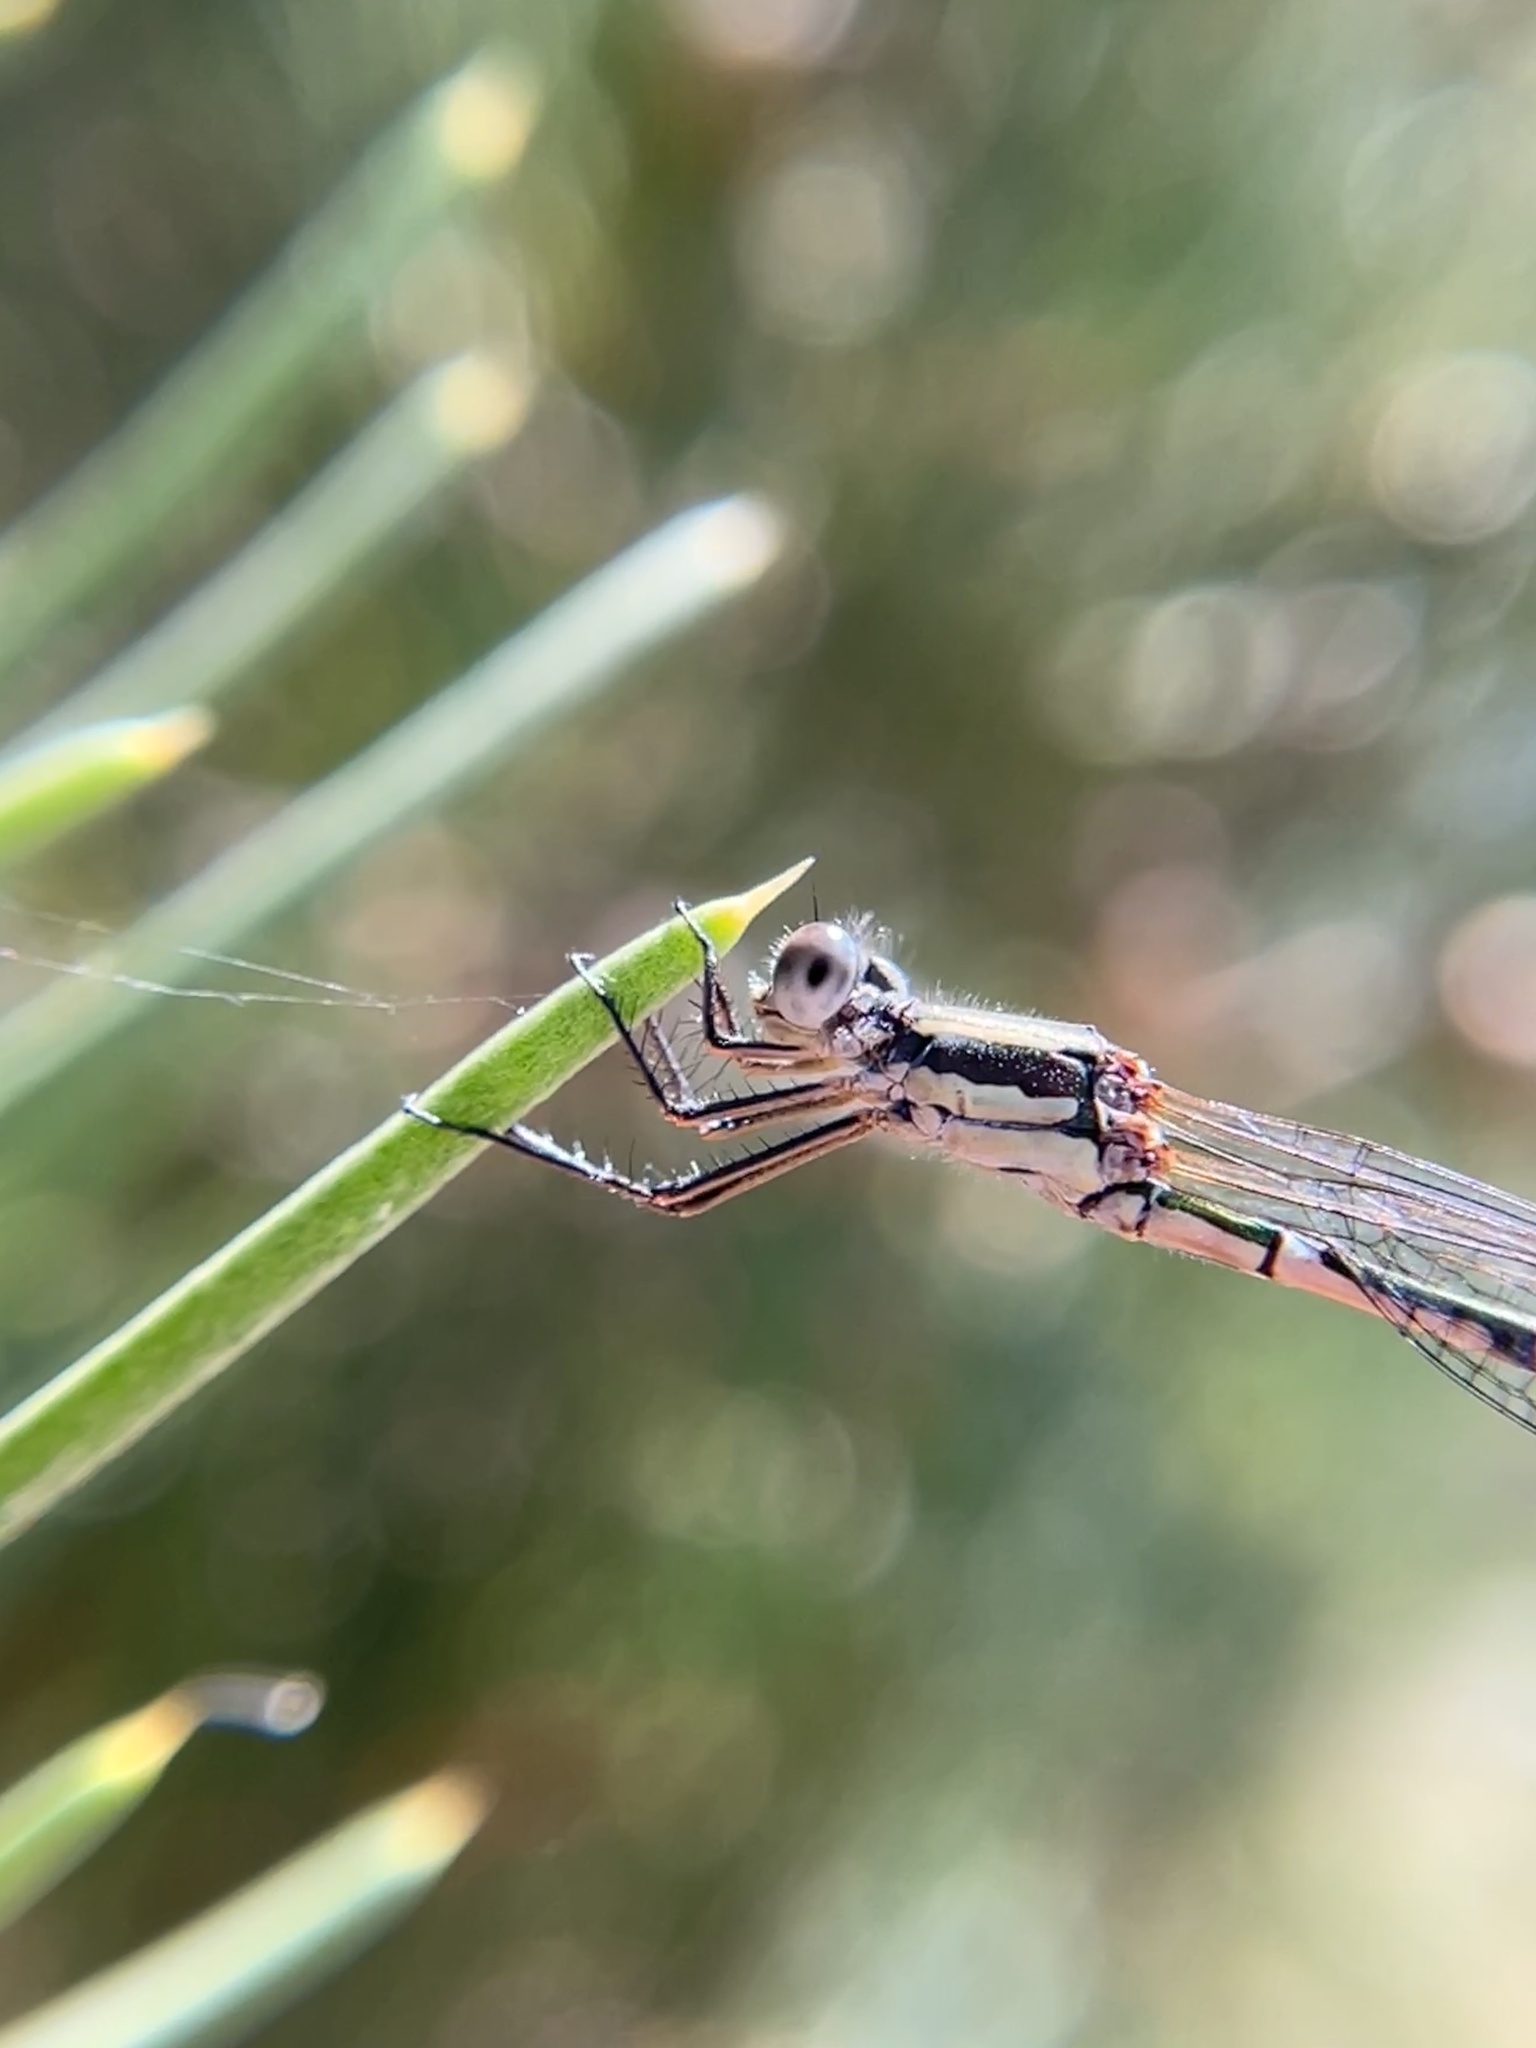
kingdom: Animalia
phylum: Arthropoda
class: Insecta
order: Odonata
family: Lestidae
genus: Austrolestes
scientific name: Austrolestes leda
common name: Wandering ringtail
